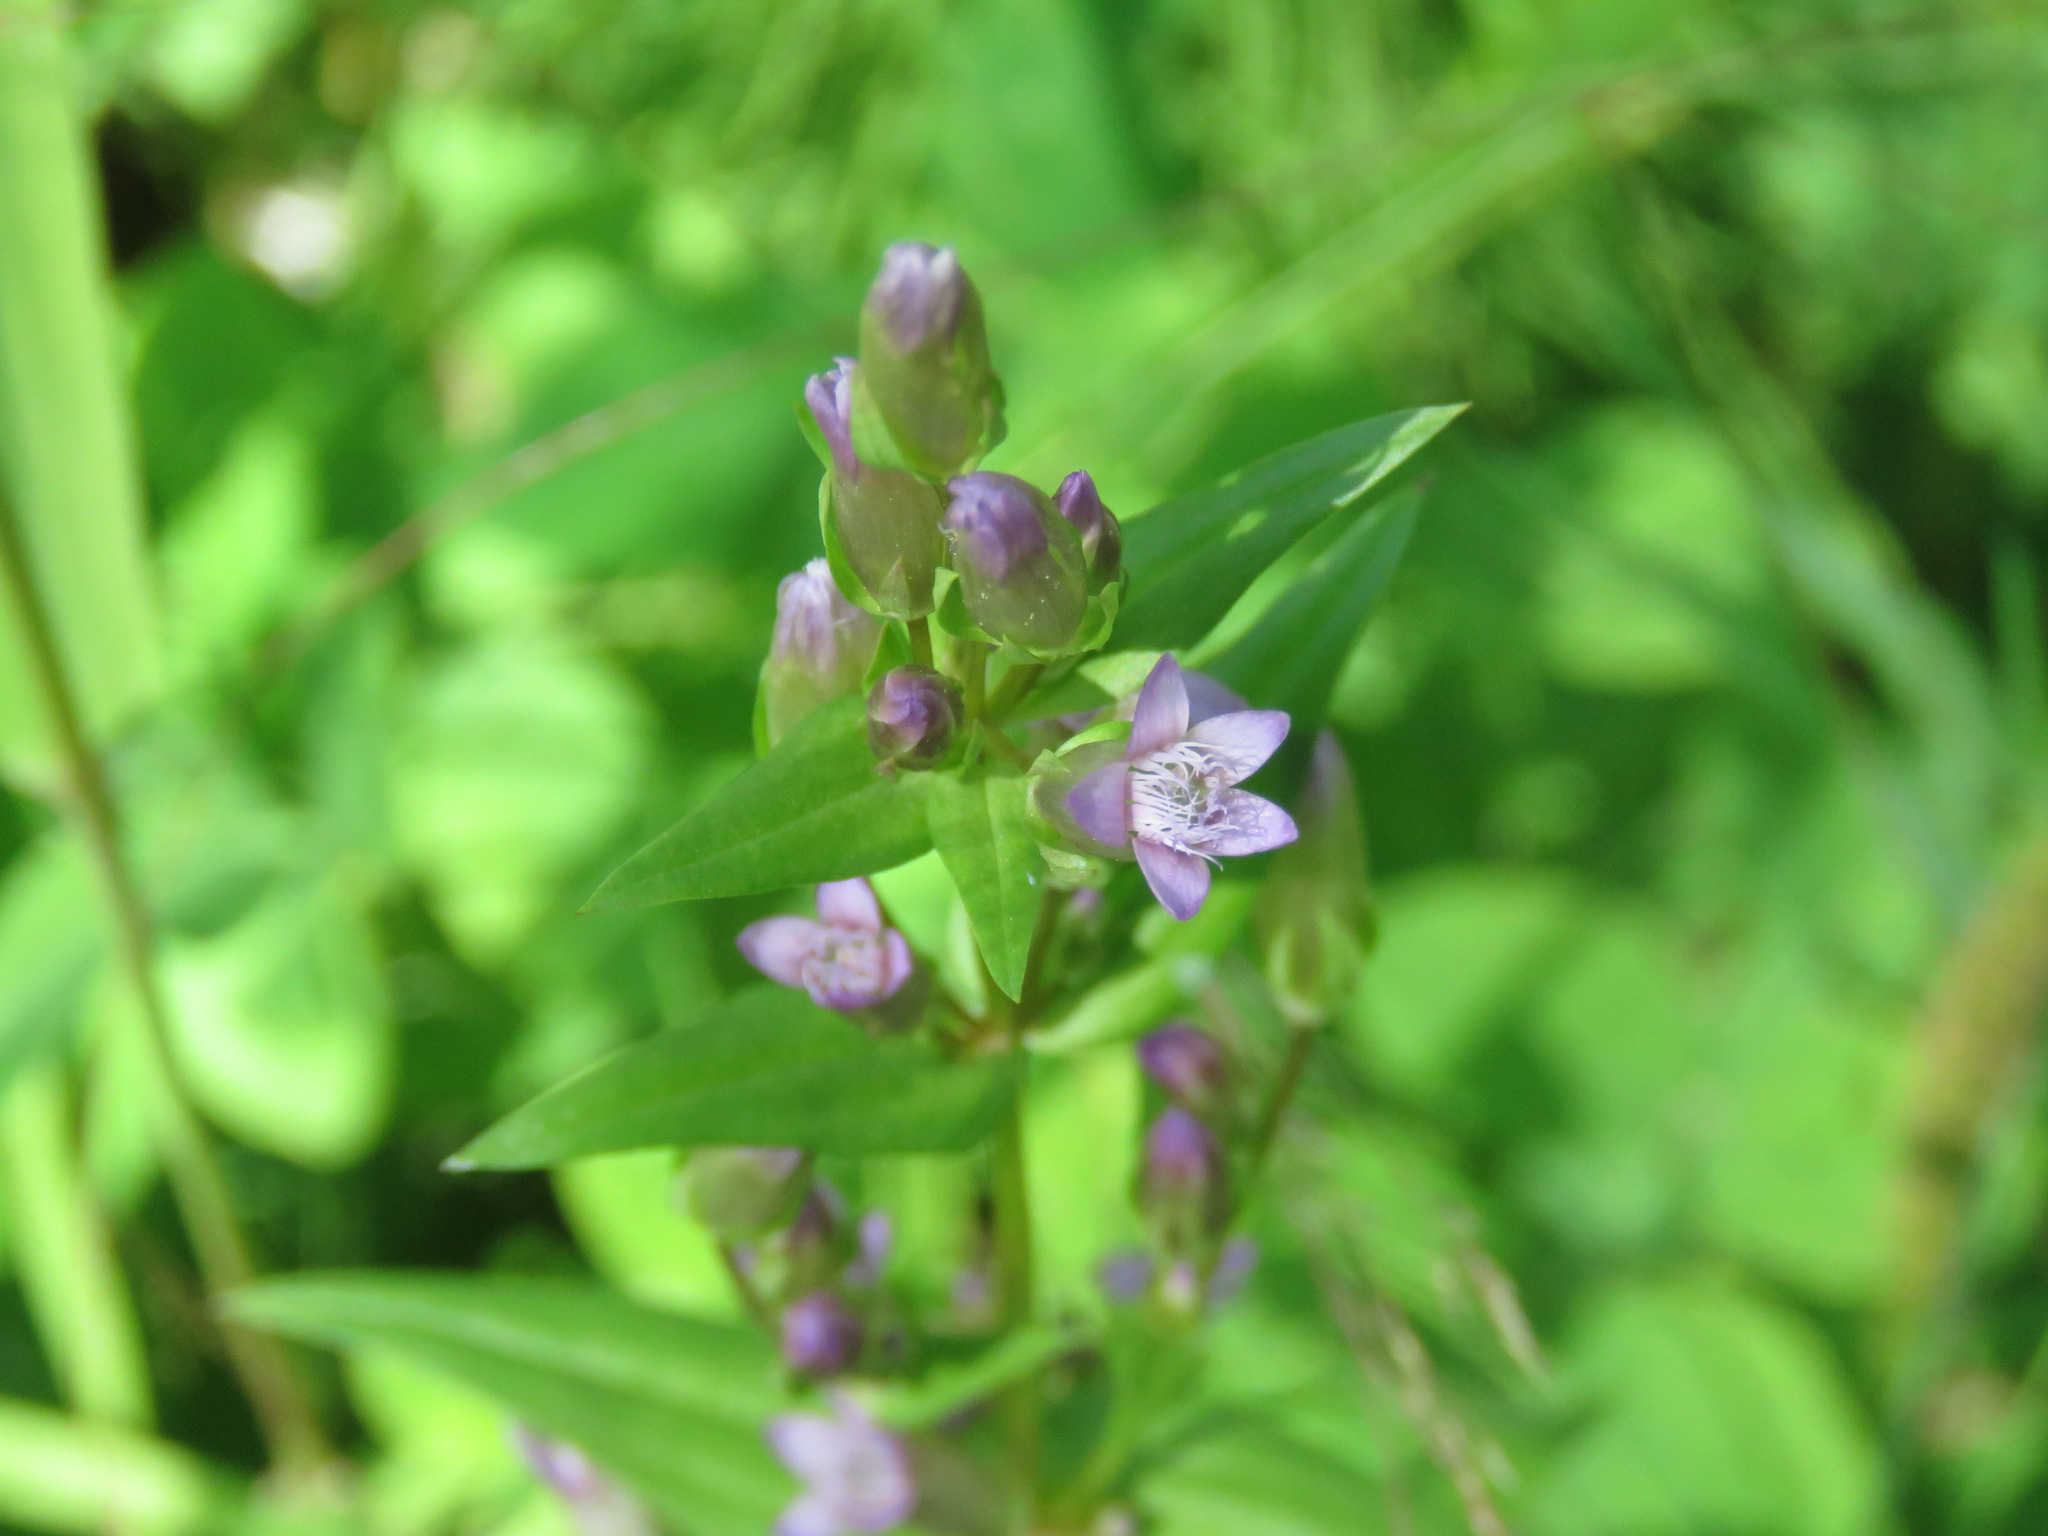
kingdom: Plantae
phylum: Tracheophyta
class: Magnoliopsida
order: Gentianales
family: Gentianaceae
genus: Gentianella
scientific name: Gentianella amarella
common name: Autumn gentian
